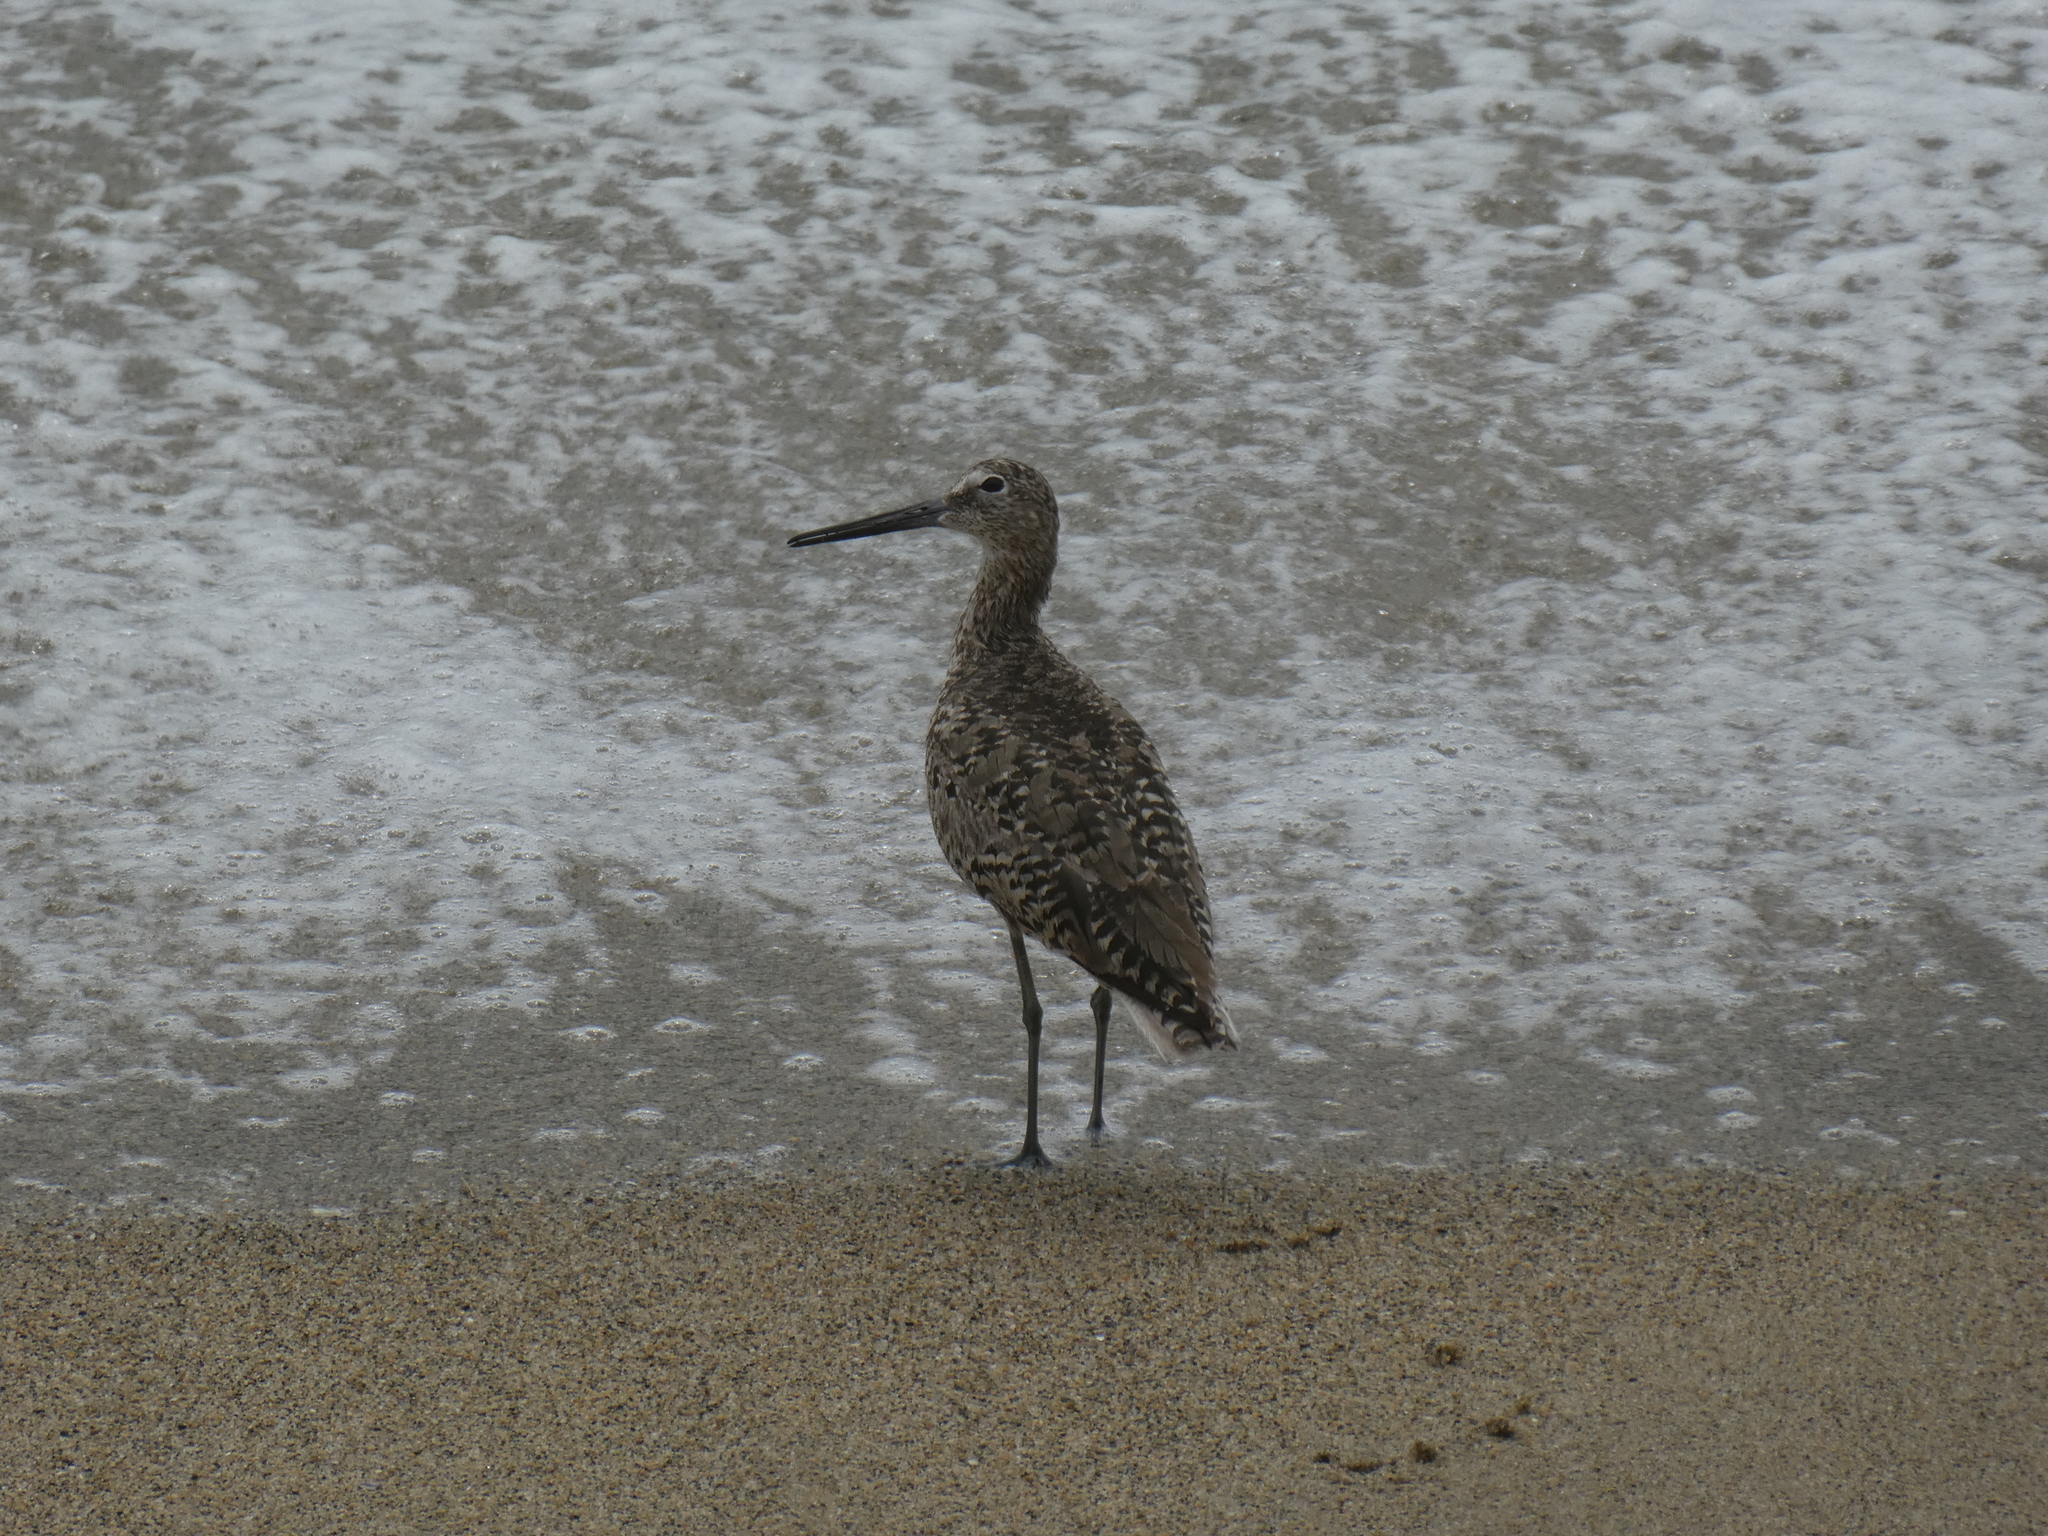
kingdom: Animalia
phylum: Chordata
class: Aves
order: Charadriiformes
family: Scolopacidae
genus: Tringa
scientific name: Tringa semipalmata
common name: Willet
